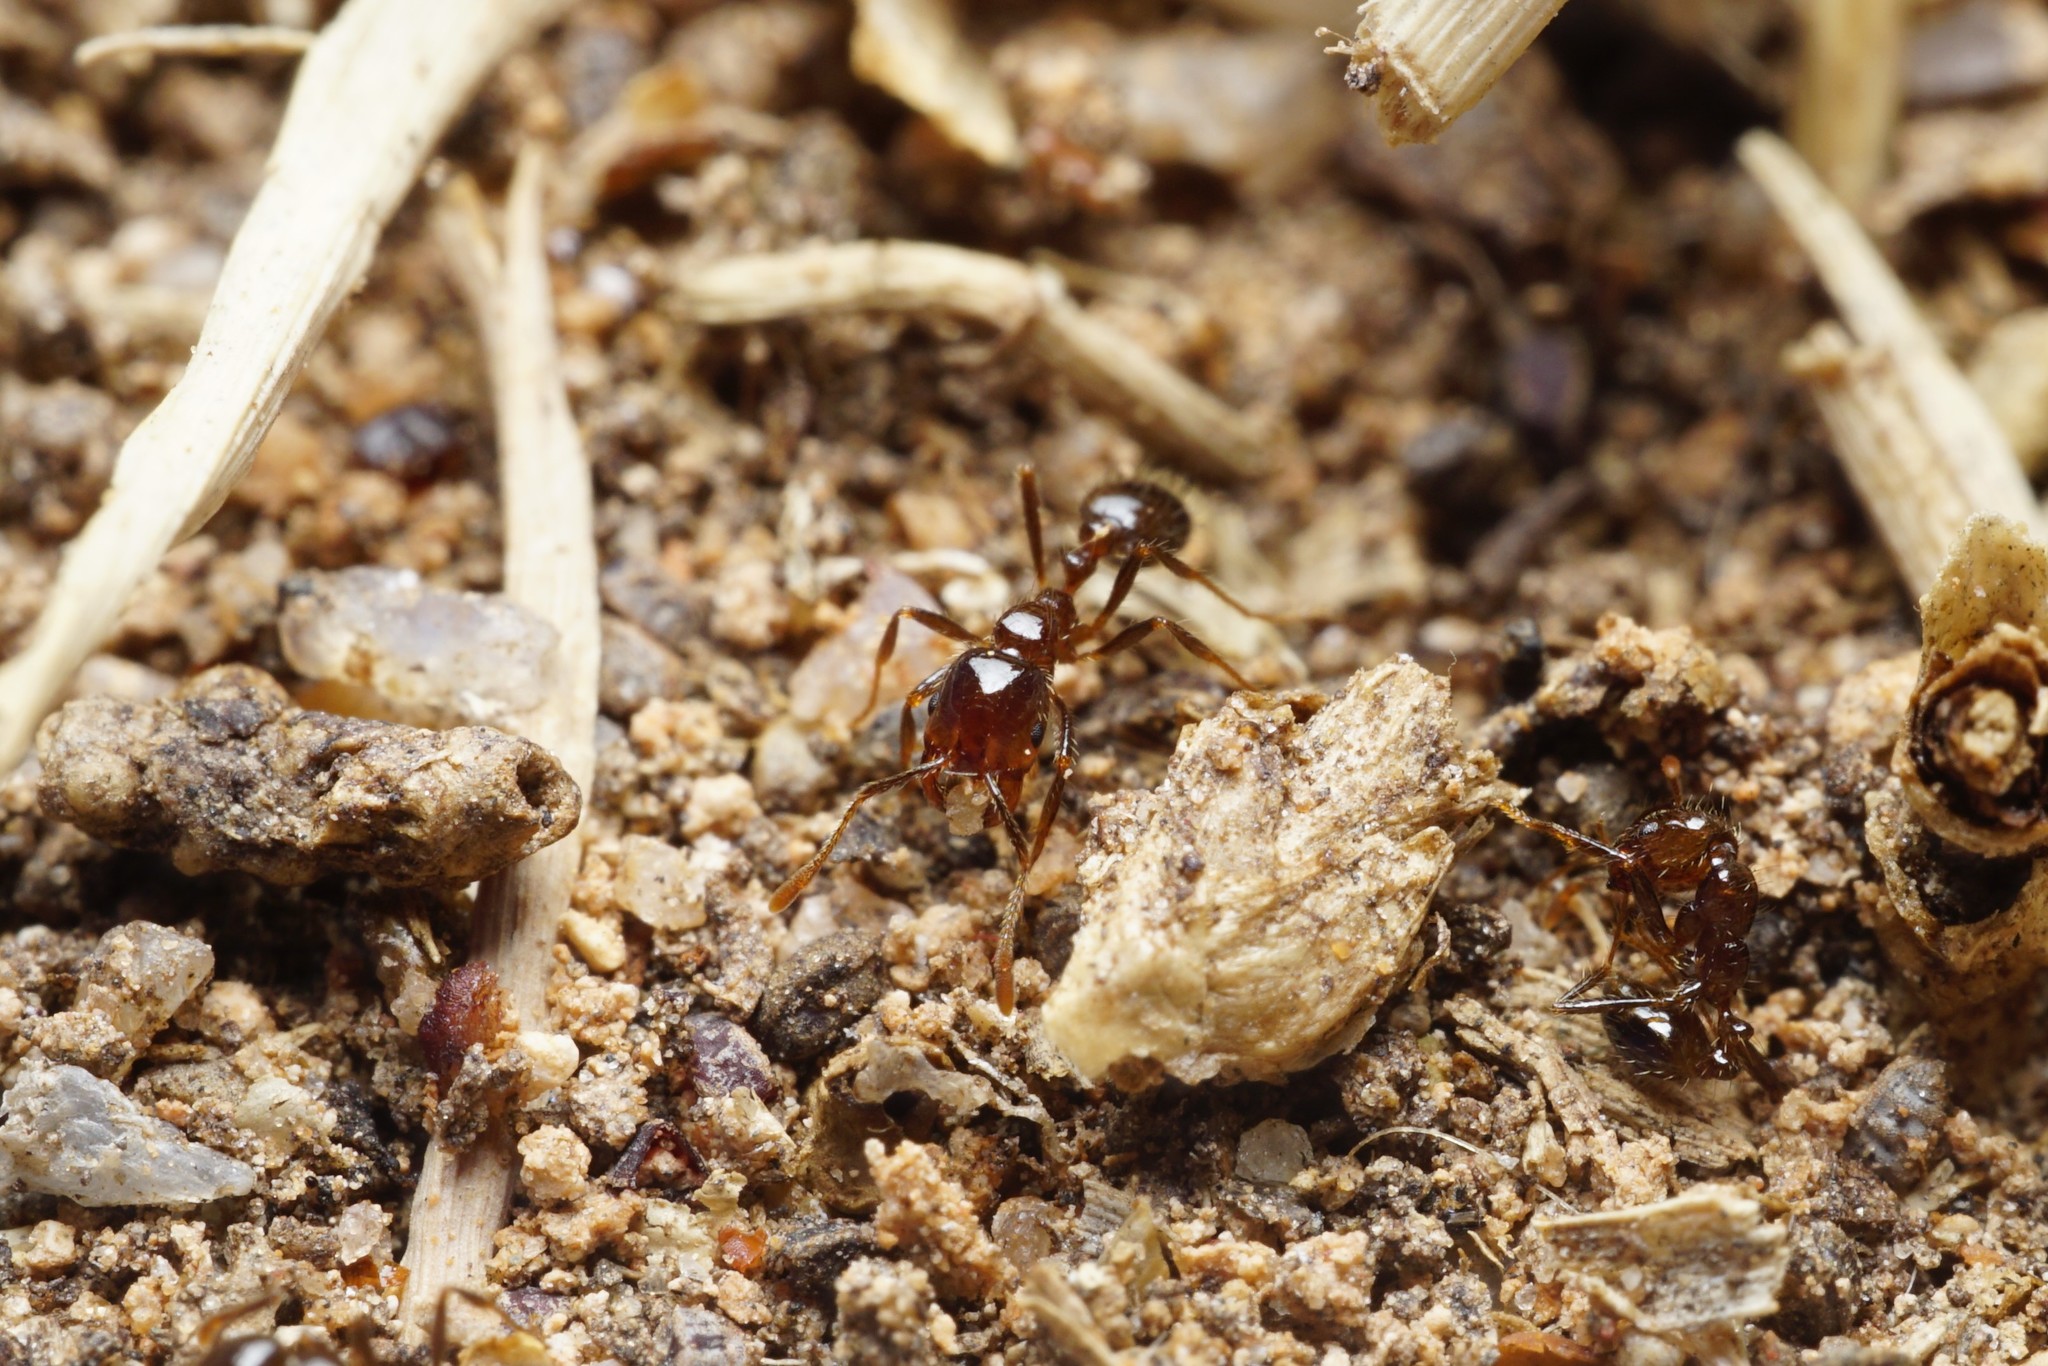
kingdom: Animalia
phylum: Arthropoda
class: Insecta
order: Hymenoptera
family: Formicidae
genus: Solenopsis
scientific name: Solenopsis xyloni
